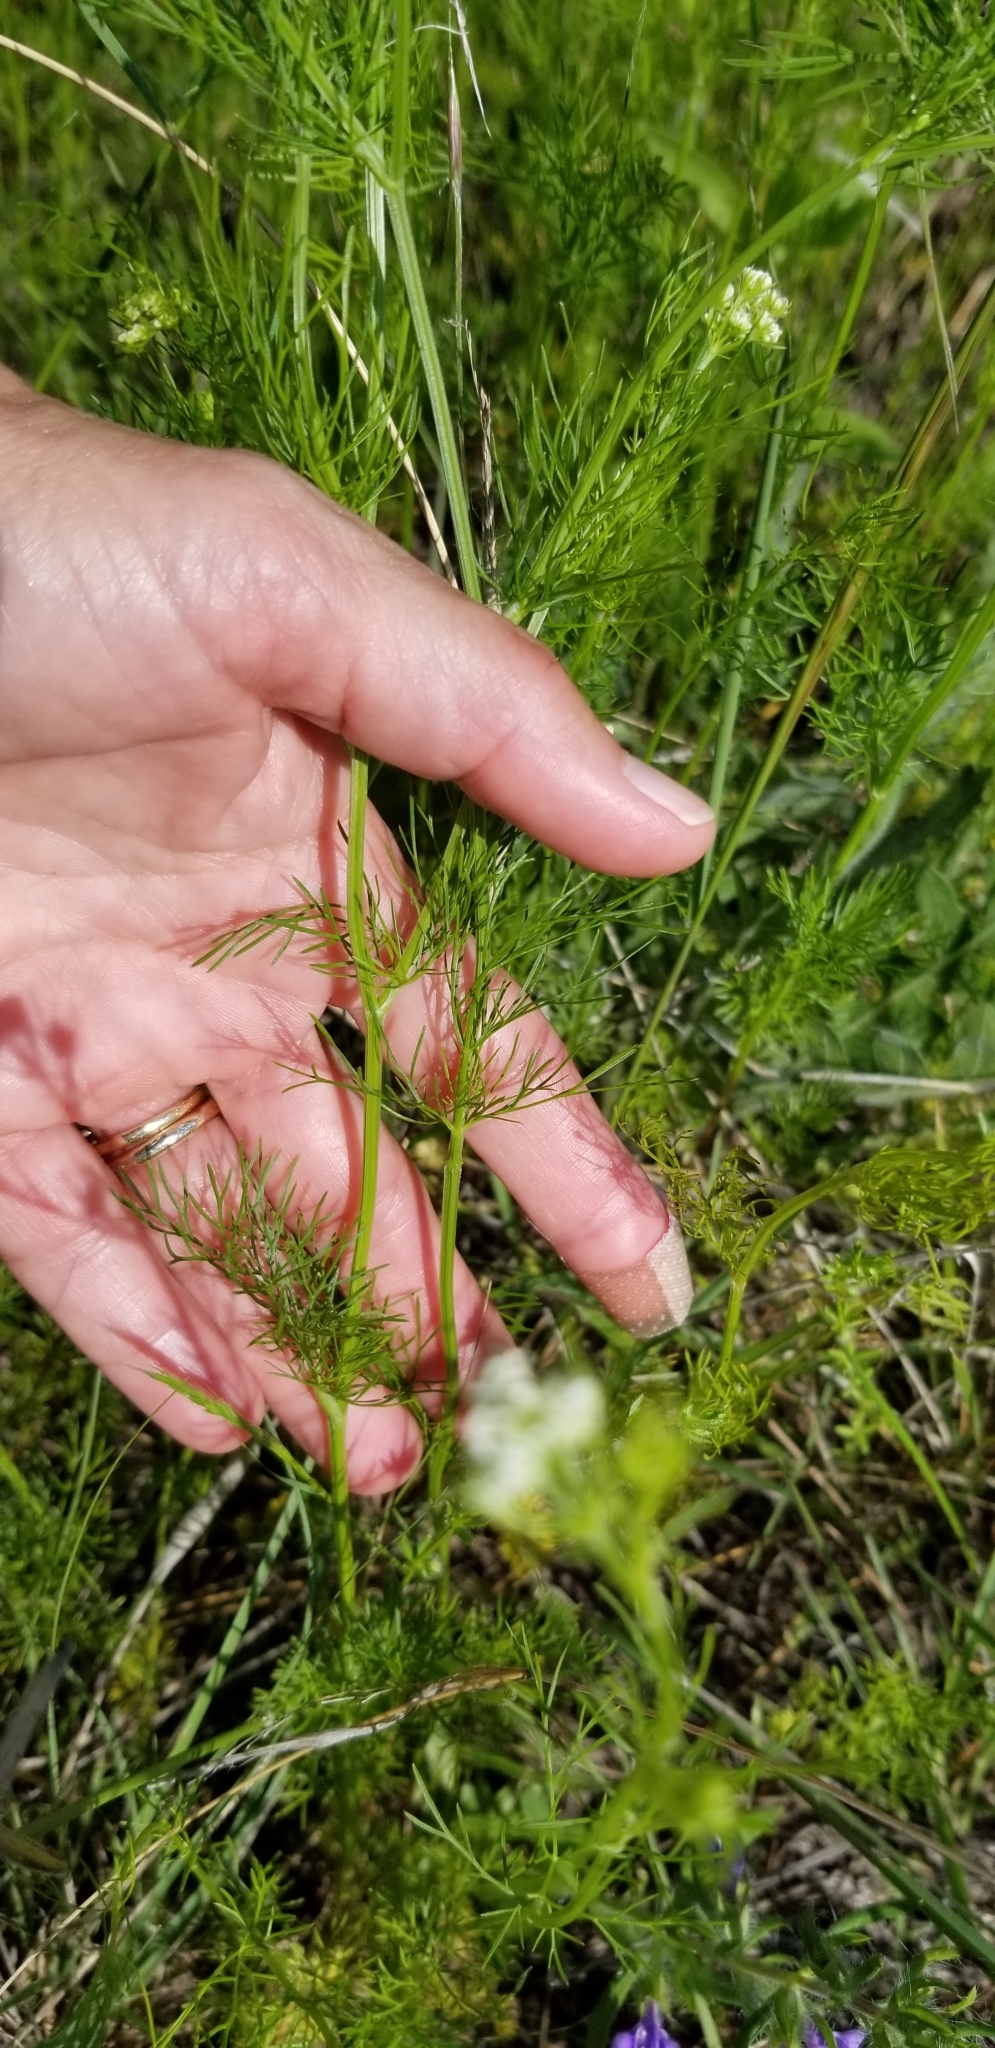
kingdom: Plantae
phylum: Tracheophyta
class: Magnoliopsida
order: Apiales
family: Apiaceae
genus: Atrema
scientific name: Atrema americanum
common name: Prairie-bishop
